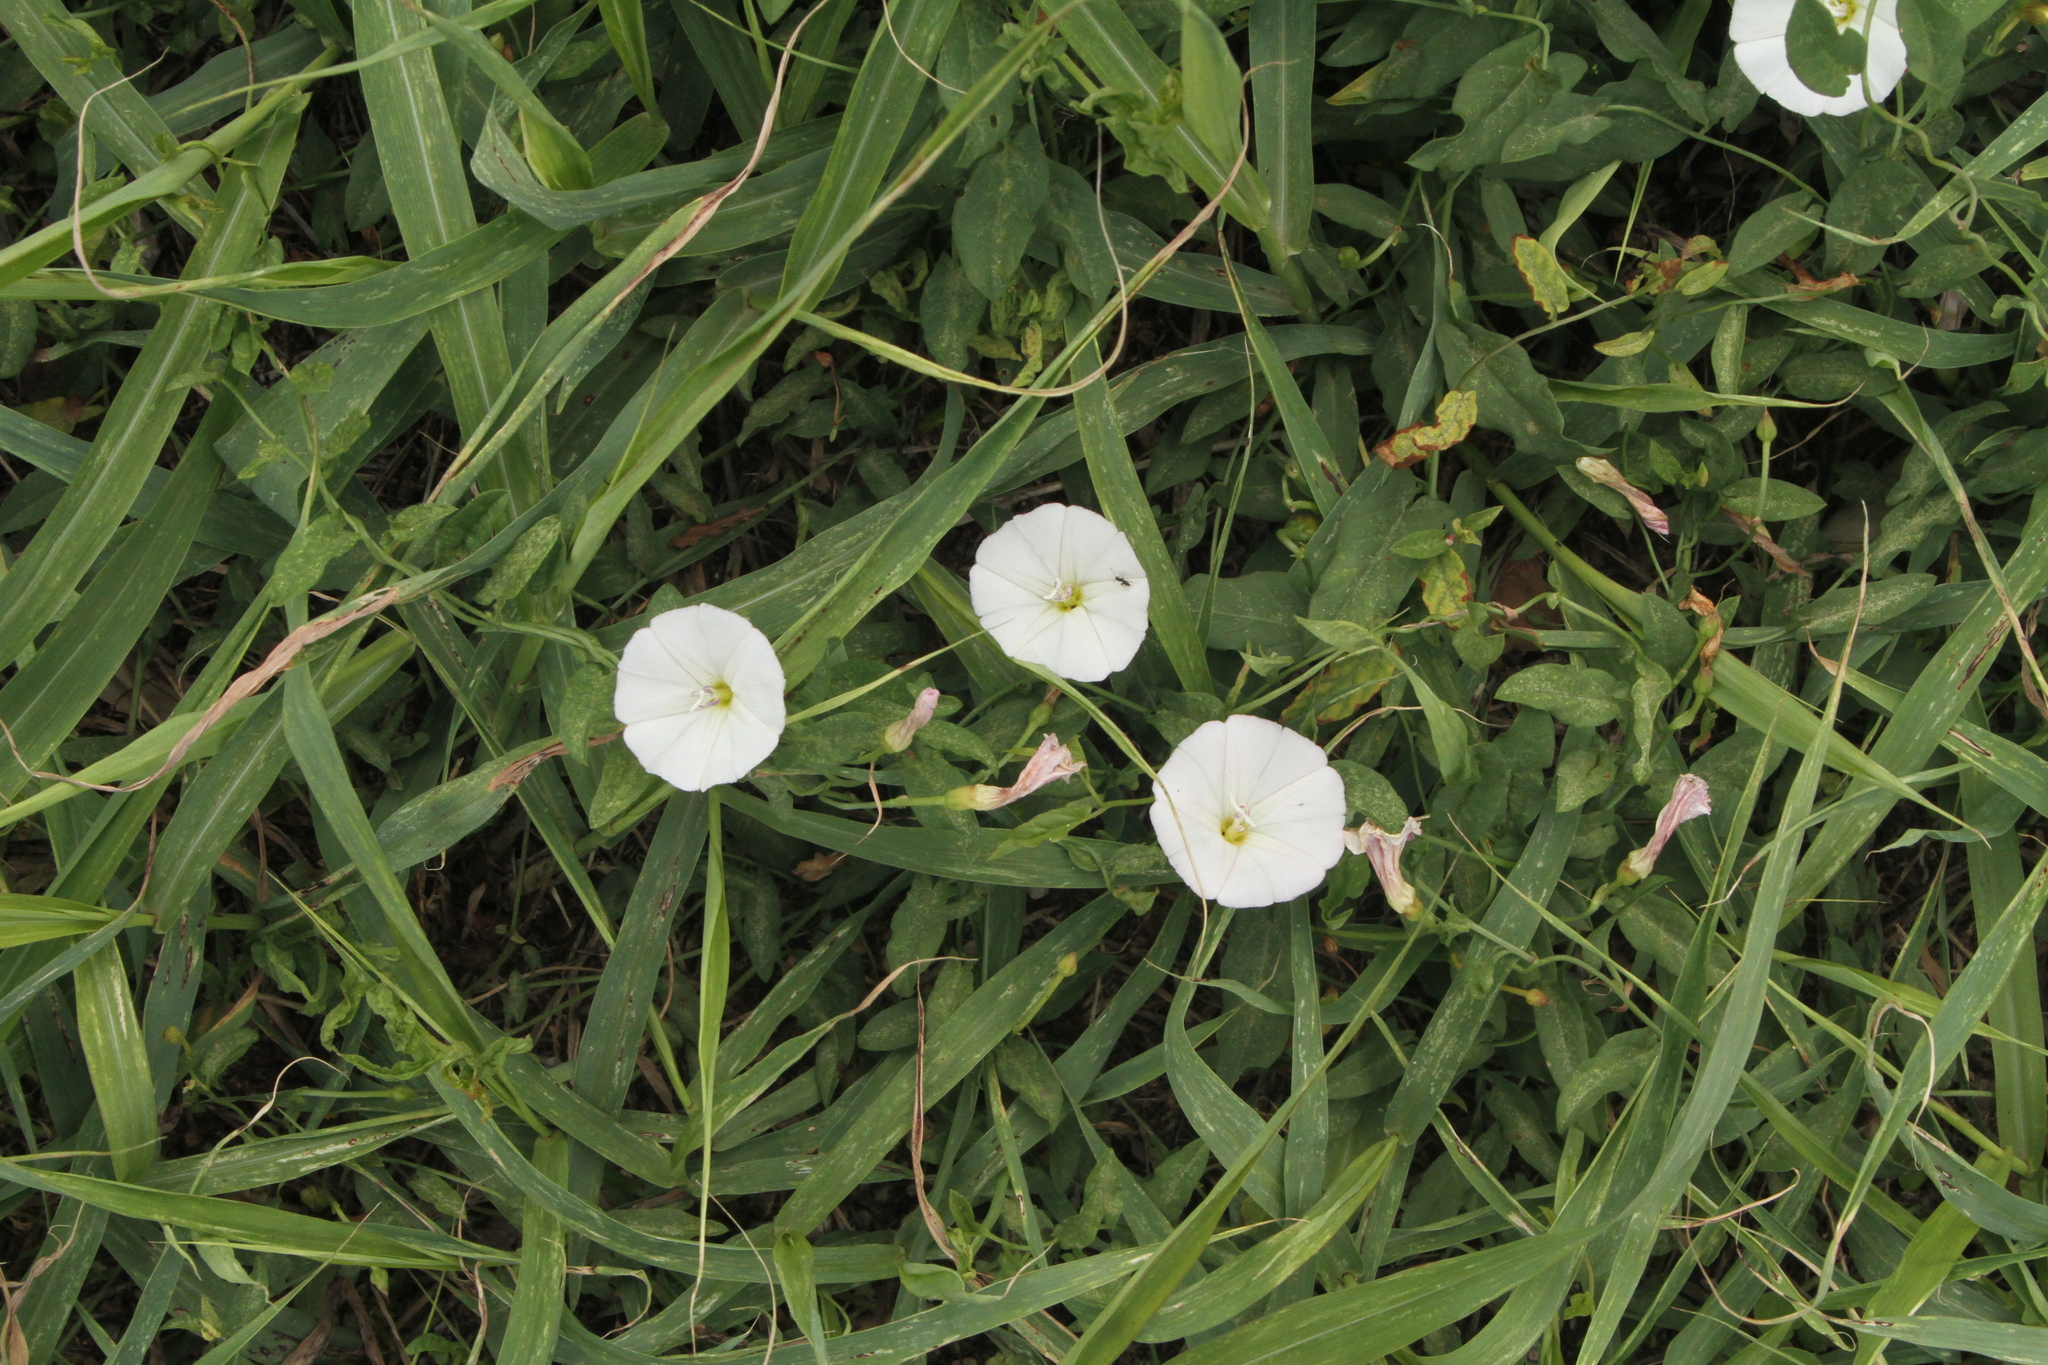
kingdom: Plantae
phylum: Tracheophyta
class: Magnoliopsida
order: Solanales
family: Convolvulaceae
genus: Convolvulus
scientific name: Convolvulus arvensis
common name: Field bindweed
